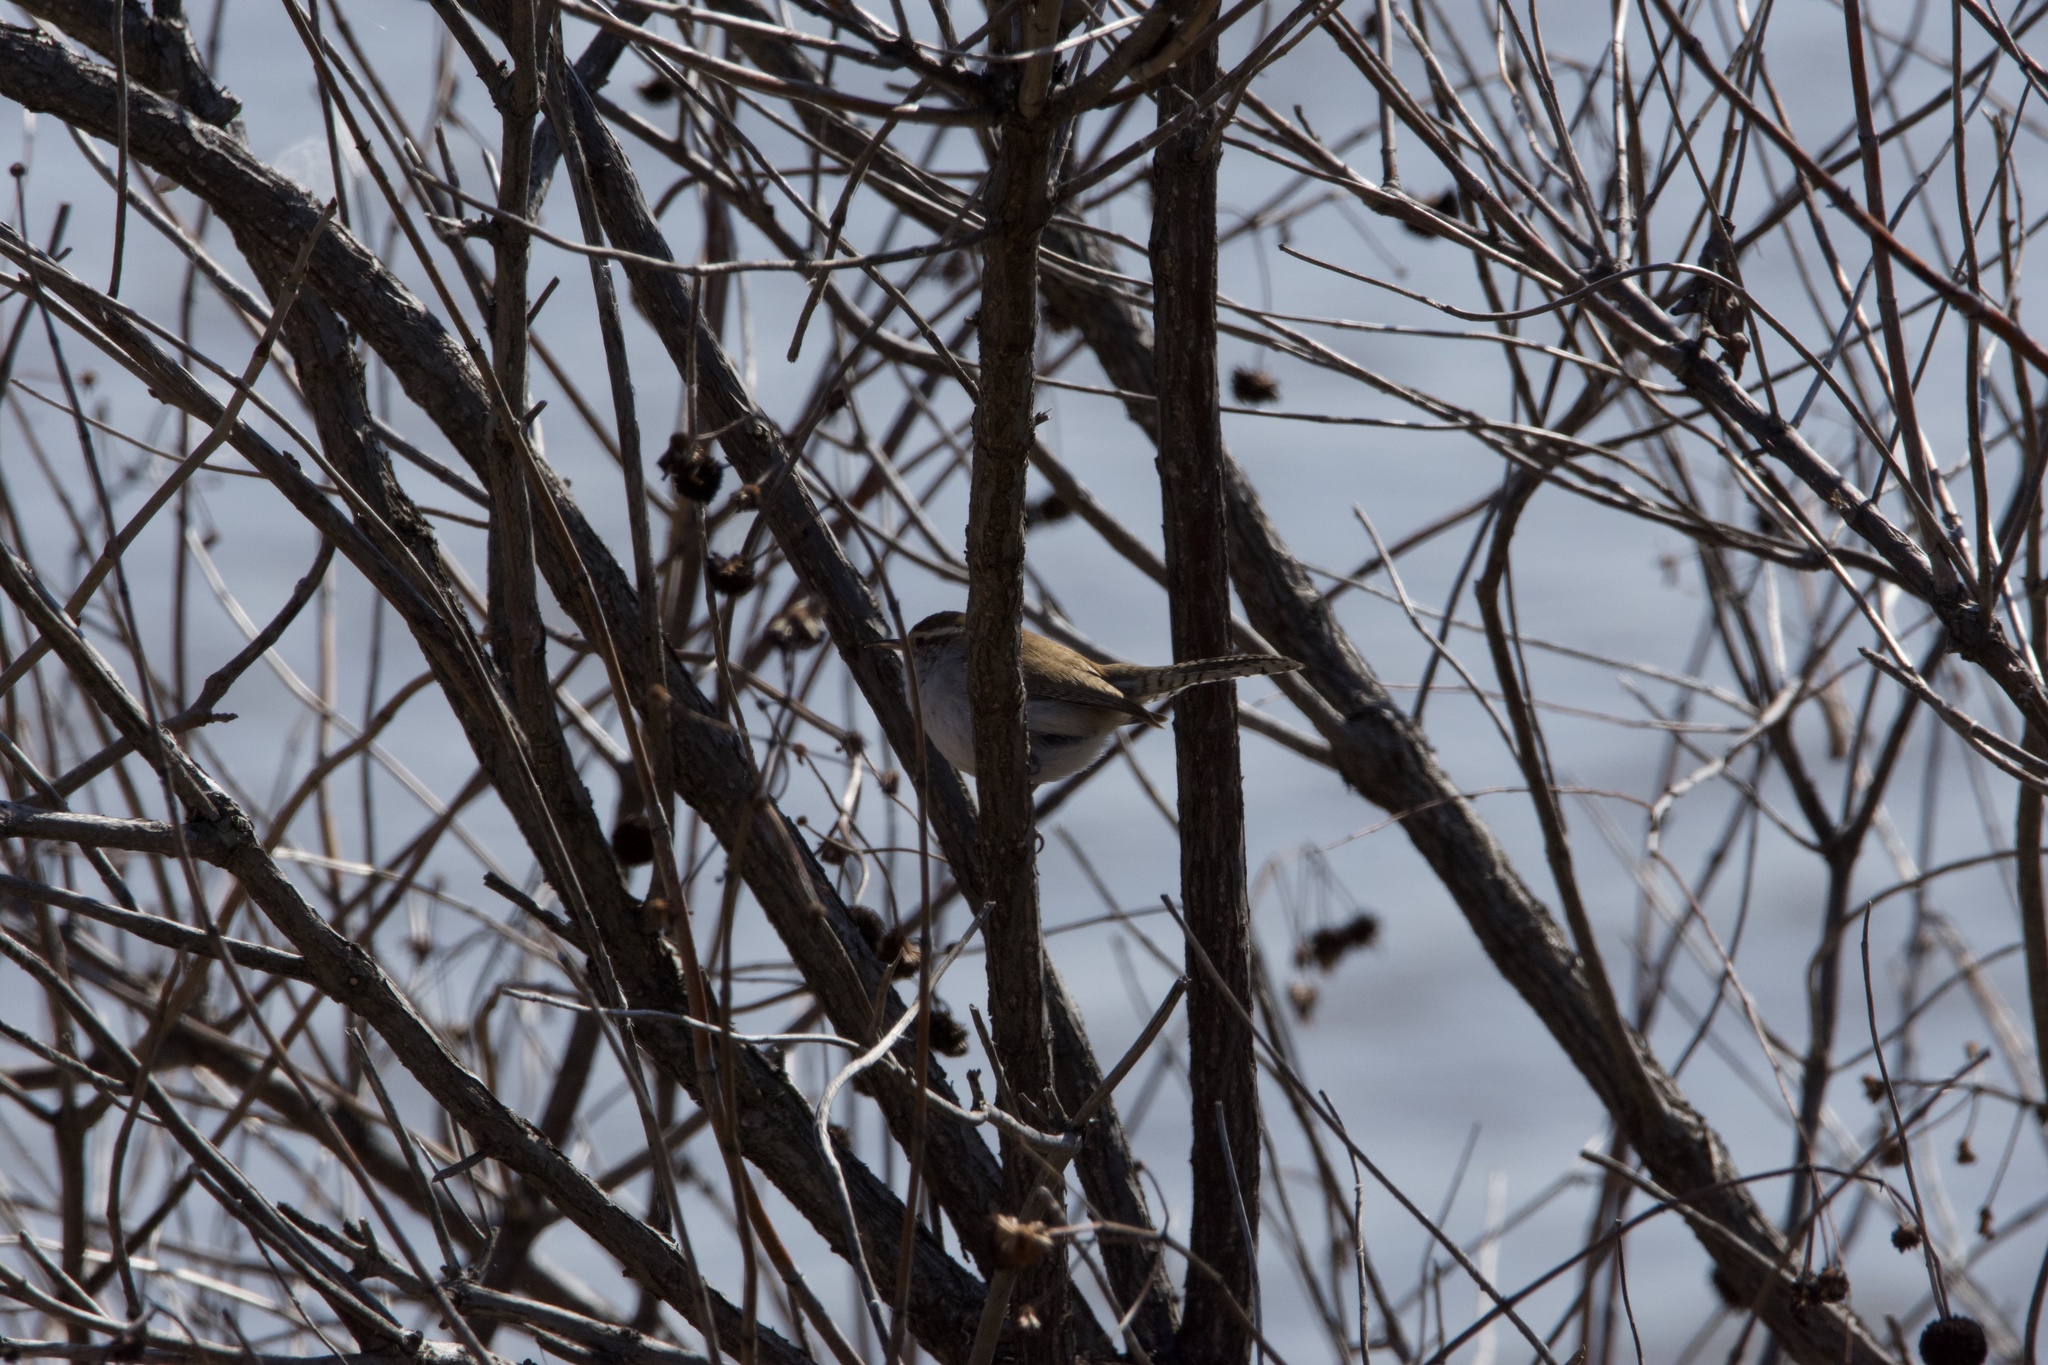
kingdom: Animalia
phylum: Chordata
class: Aves
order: Passeriformes
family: Troglodytidae
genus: Thryomanes
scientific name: Thryomanes bewickii
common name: Bewick's wren
